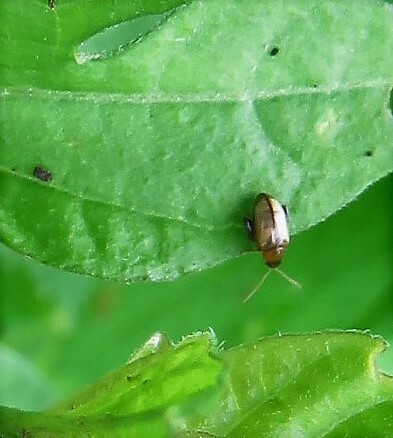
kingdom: Animalia
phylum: Arthropoda
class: Insecta
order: Coleoptera
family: Chrysomelidae
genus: Psylliodes
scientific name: Psylliodes affinis
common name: Potato flea beetle
